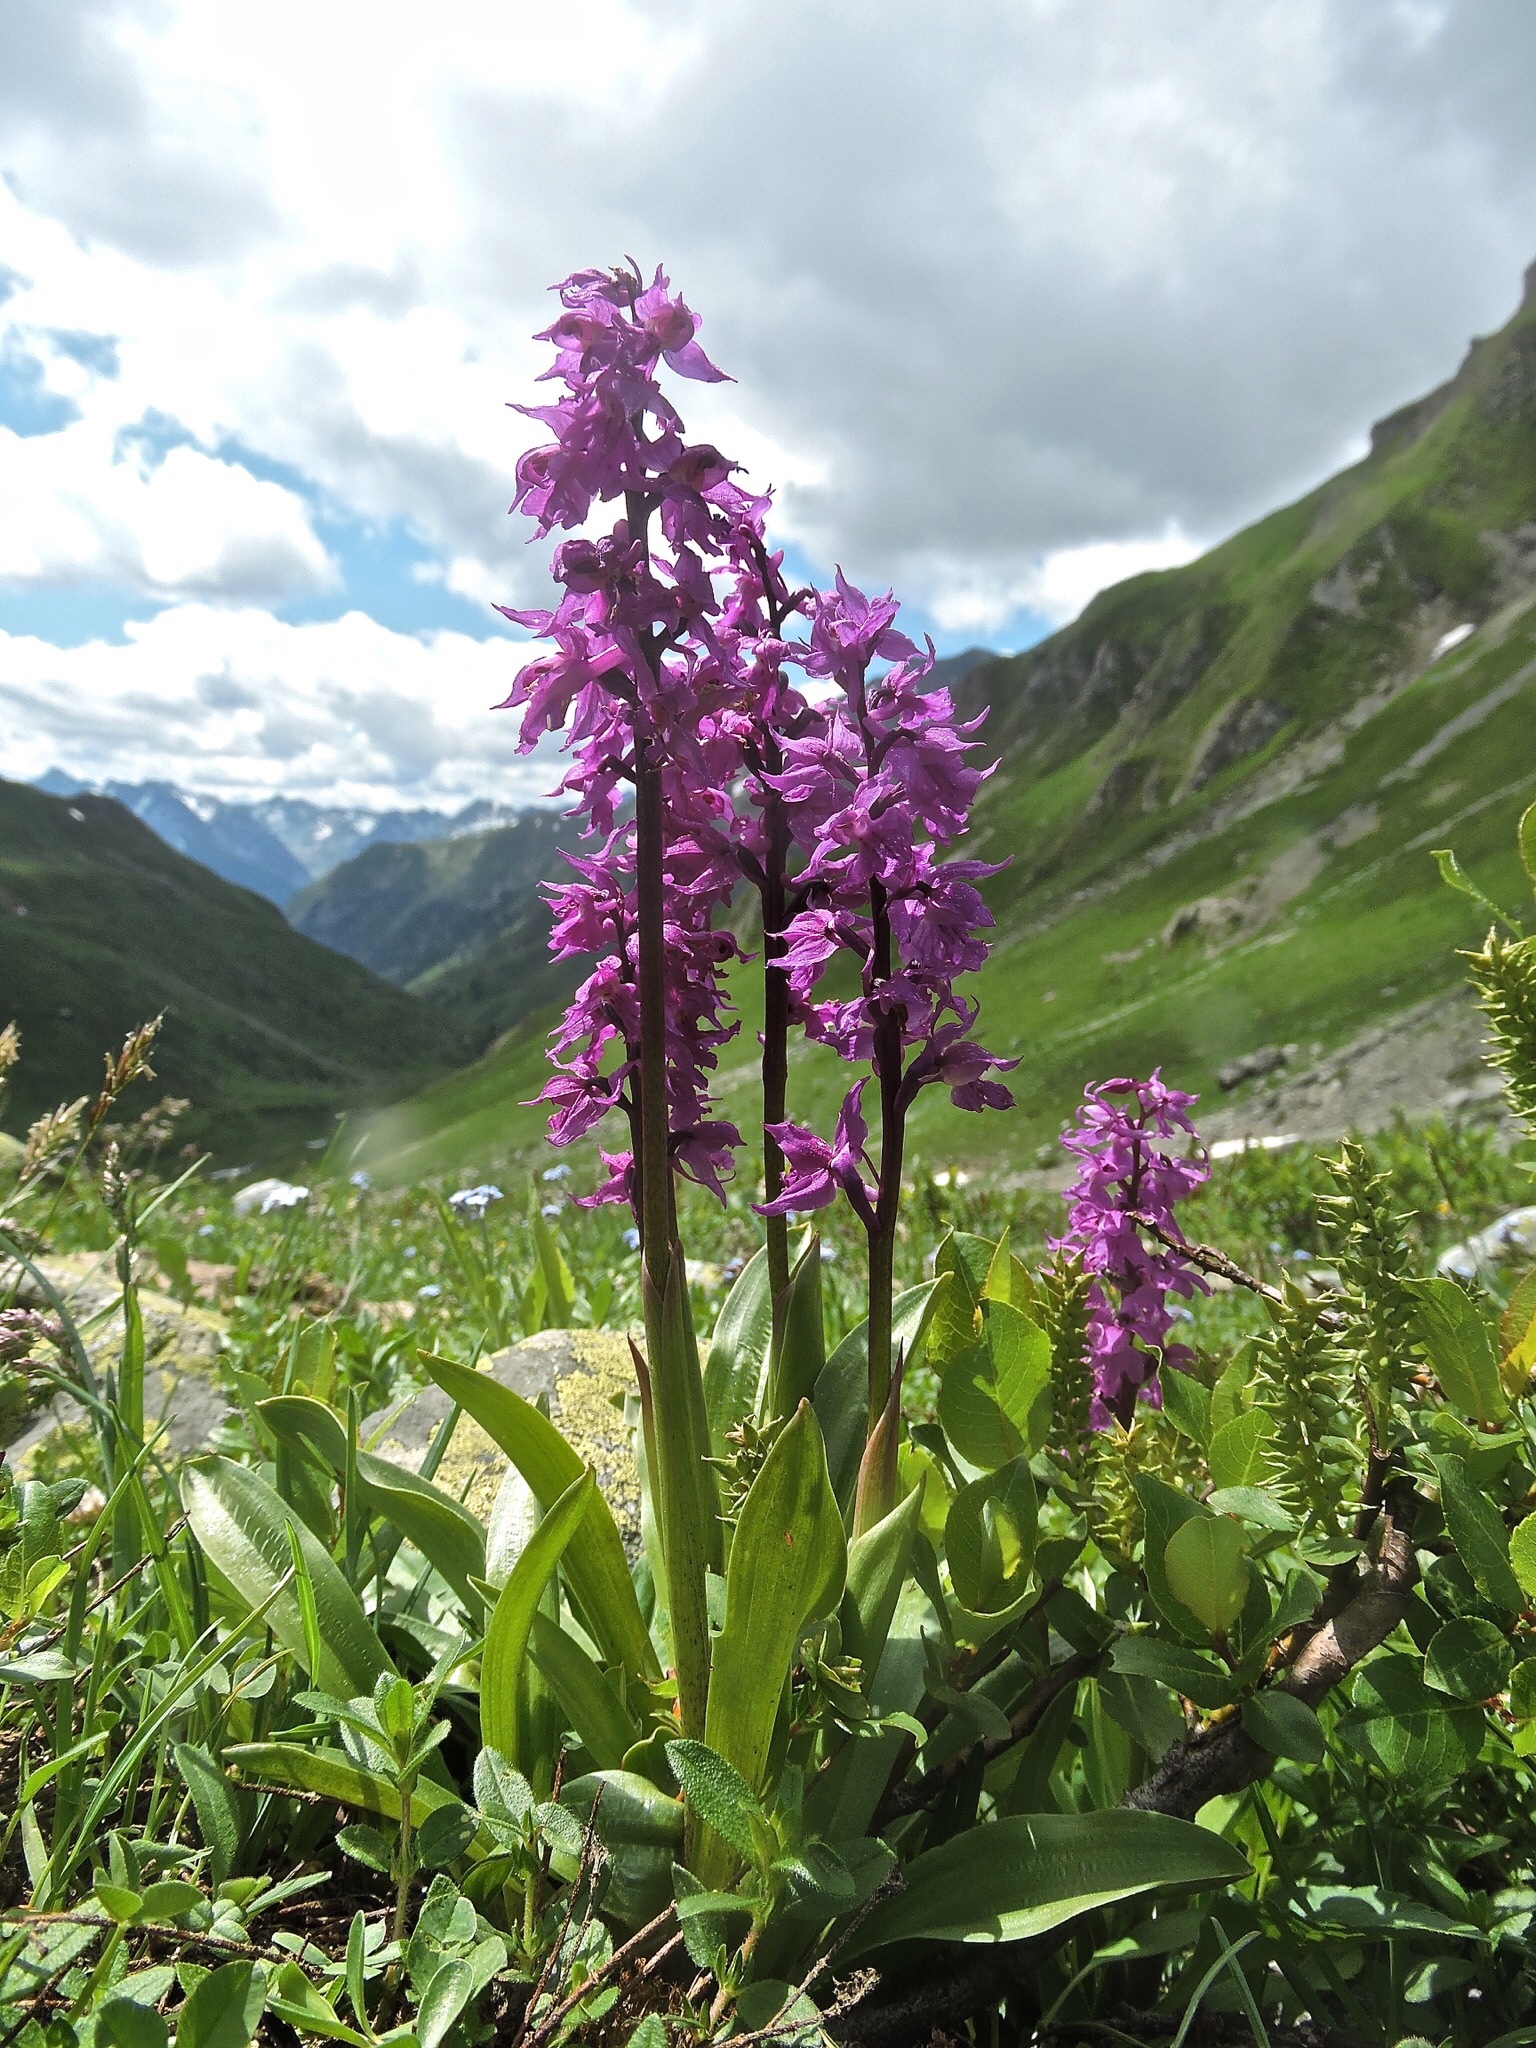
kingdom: Plantae
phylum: Tracheophyta
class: Liliopsida
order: Asparagales
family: Orchidaceae
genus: Orchis
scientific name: Orchis mascula
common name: Early-purple orchid
